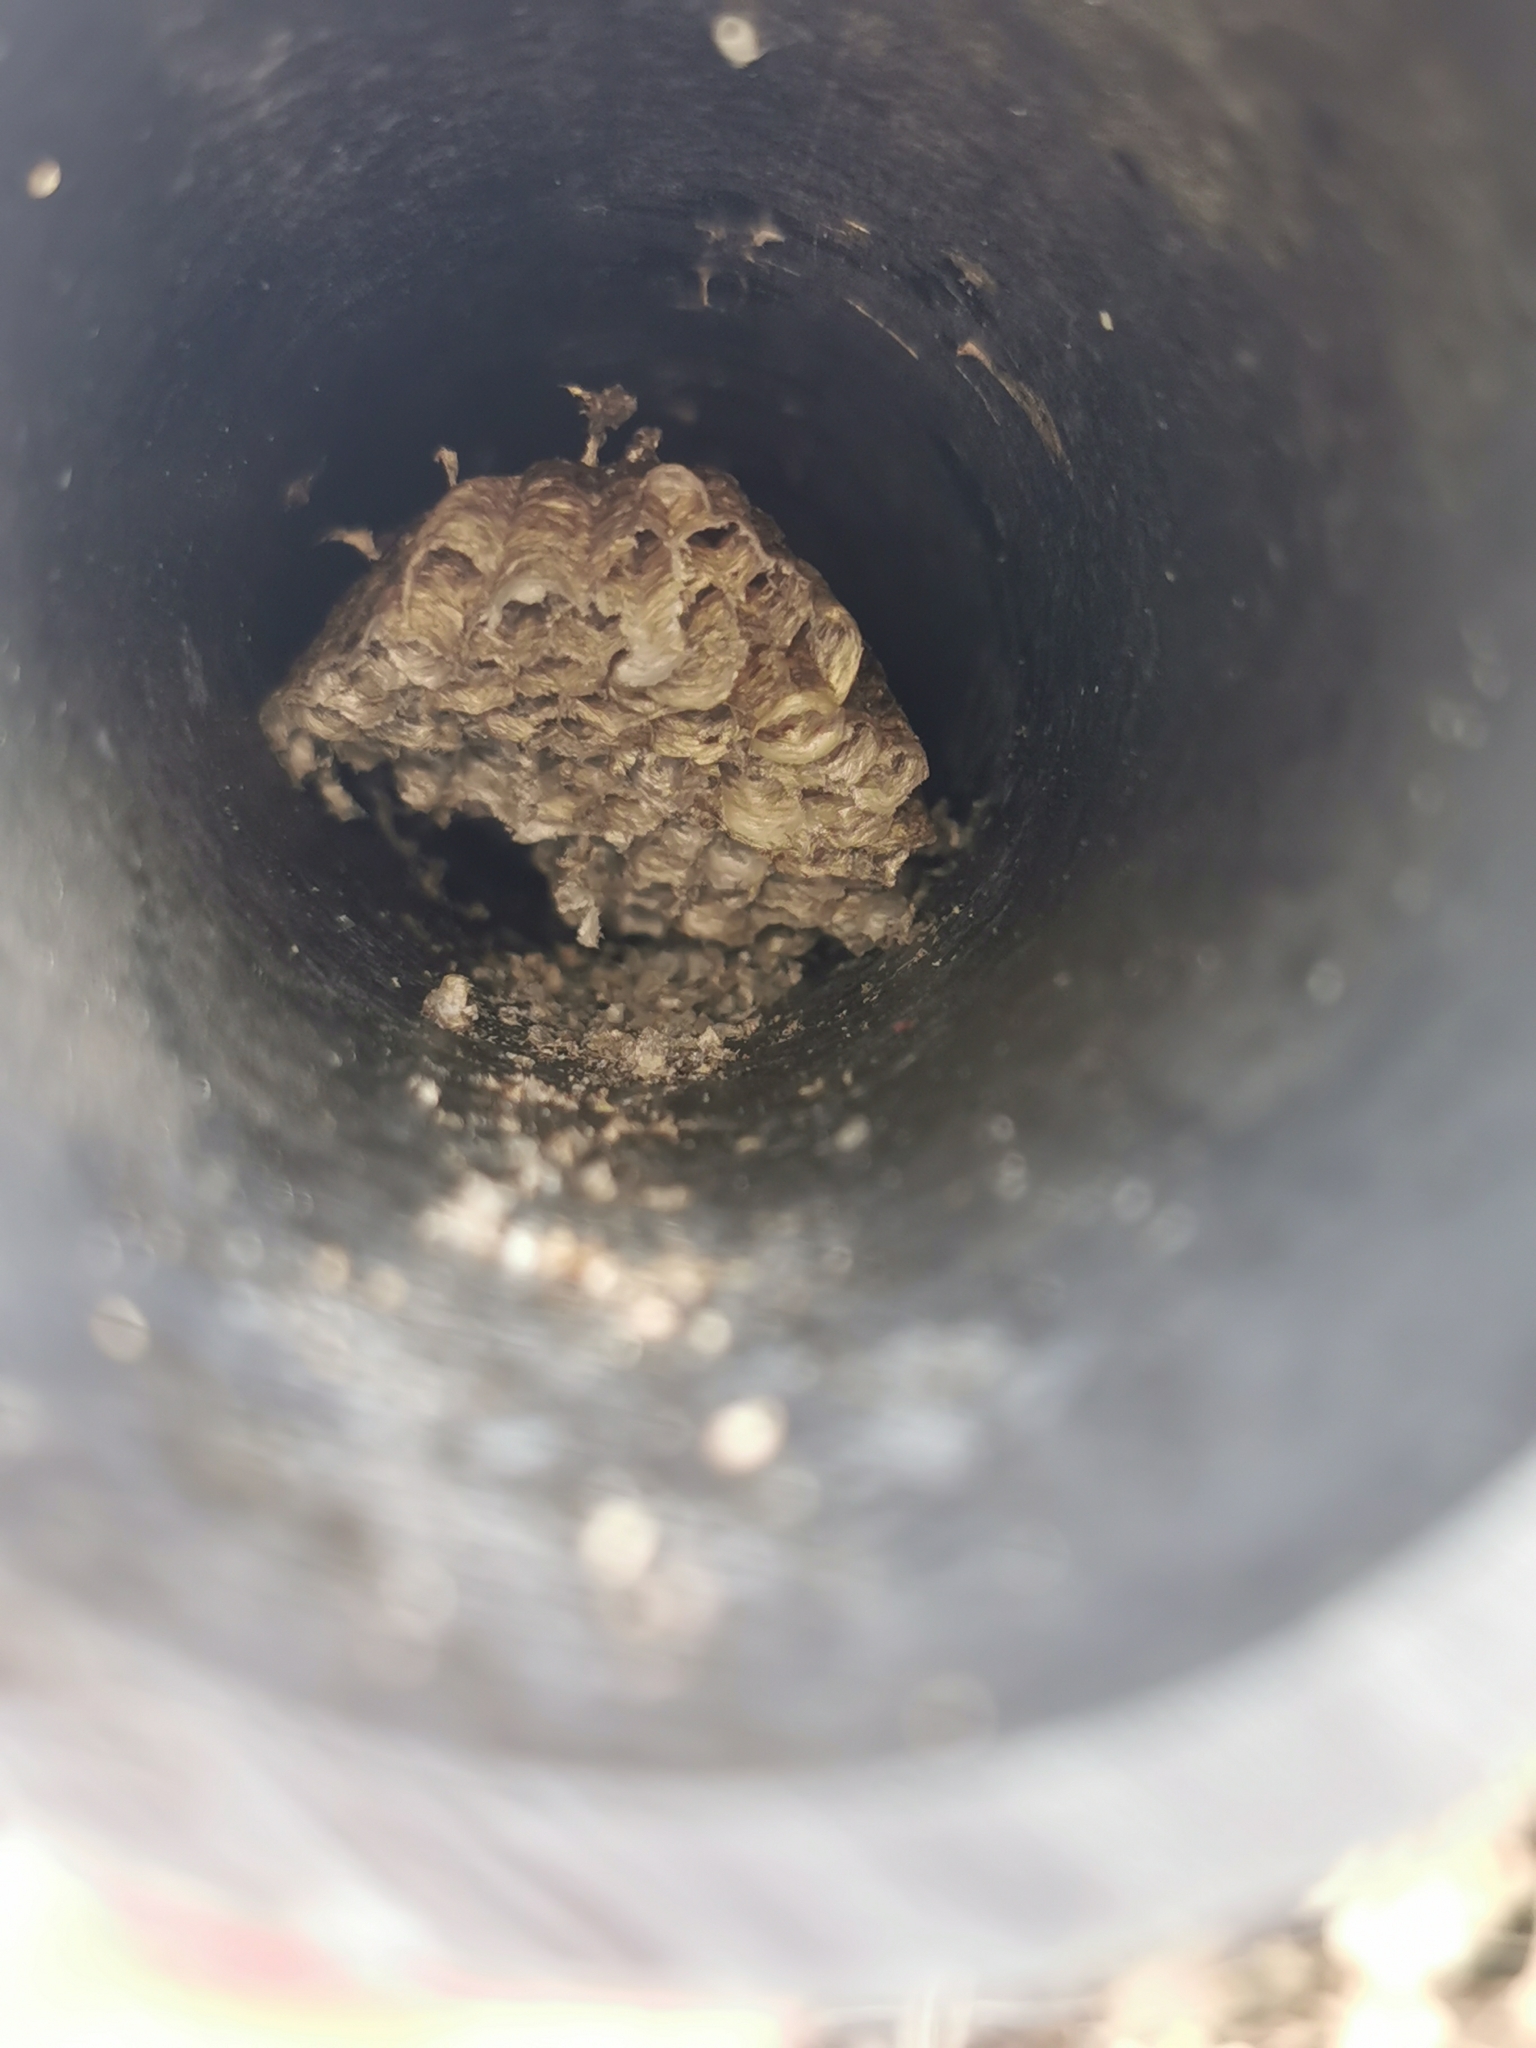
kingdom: Animalia
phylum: Arthropoda
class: Insecta
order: Hymenoptera
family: Vespidae
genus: Vespa
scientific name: Vespa crabro
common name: Hornet
